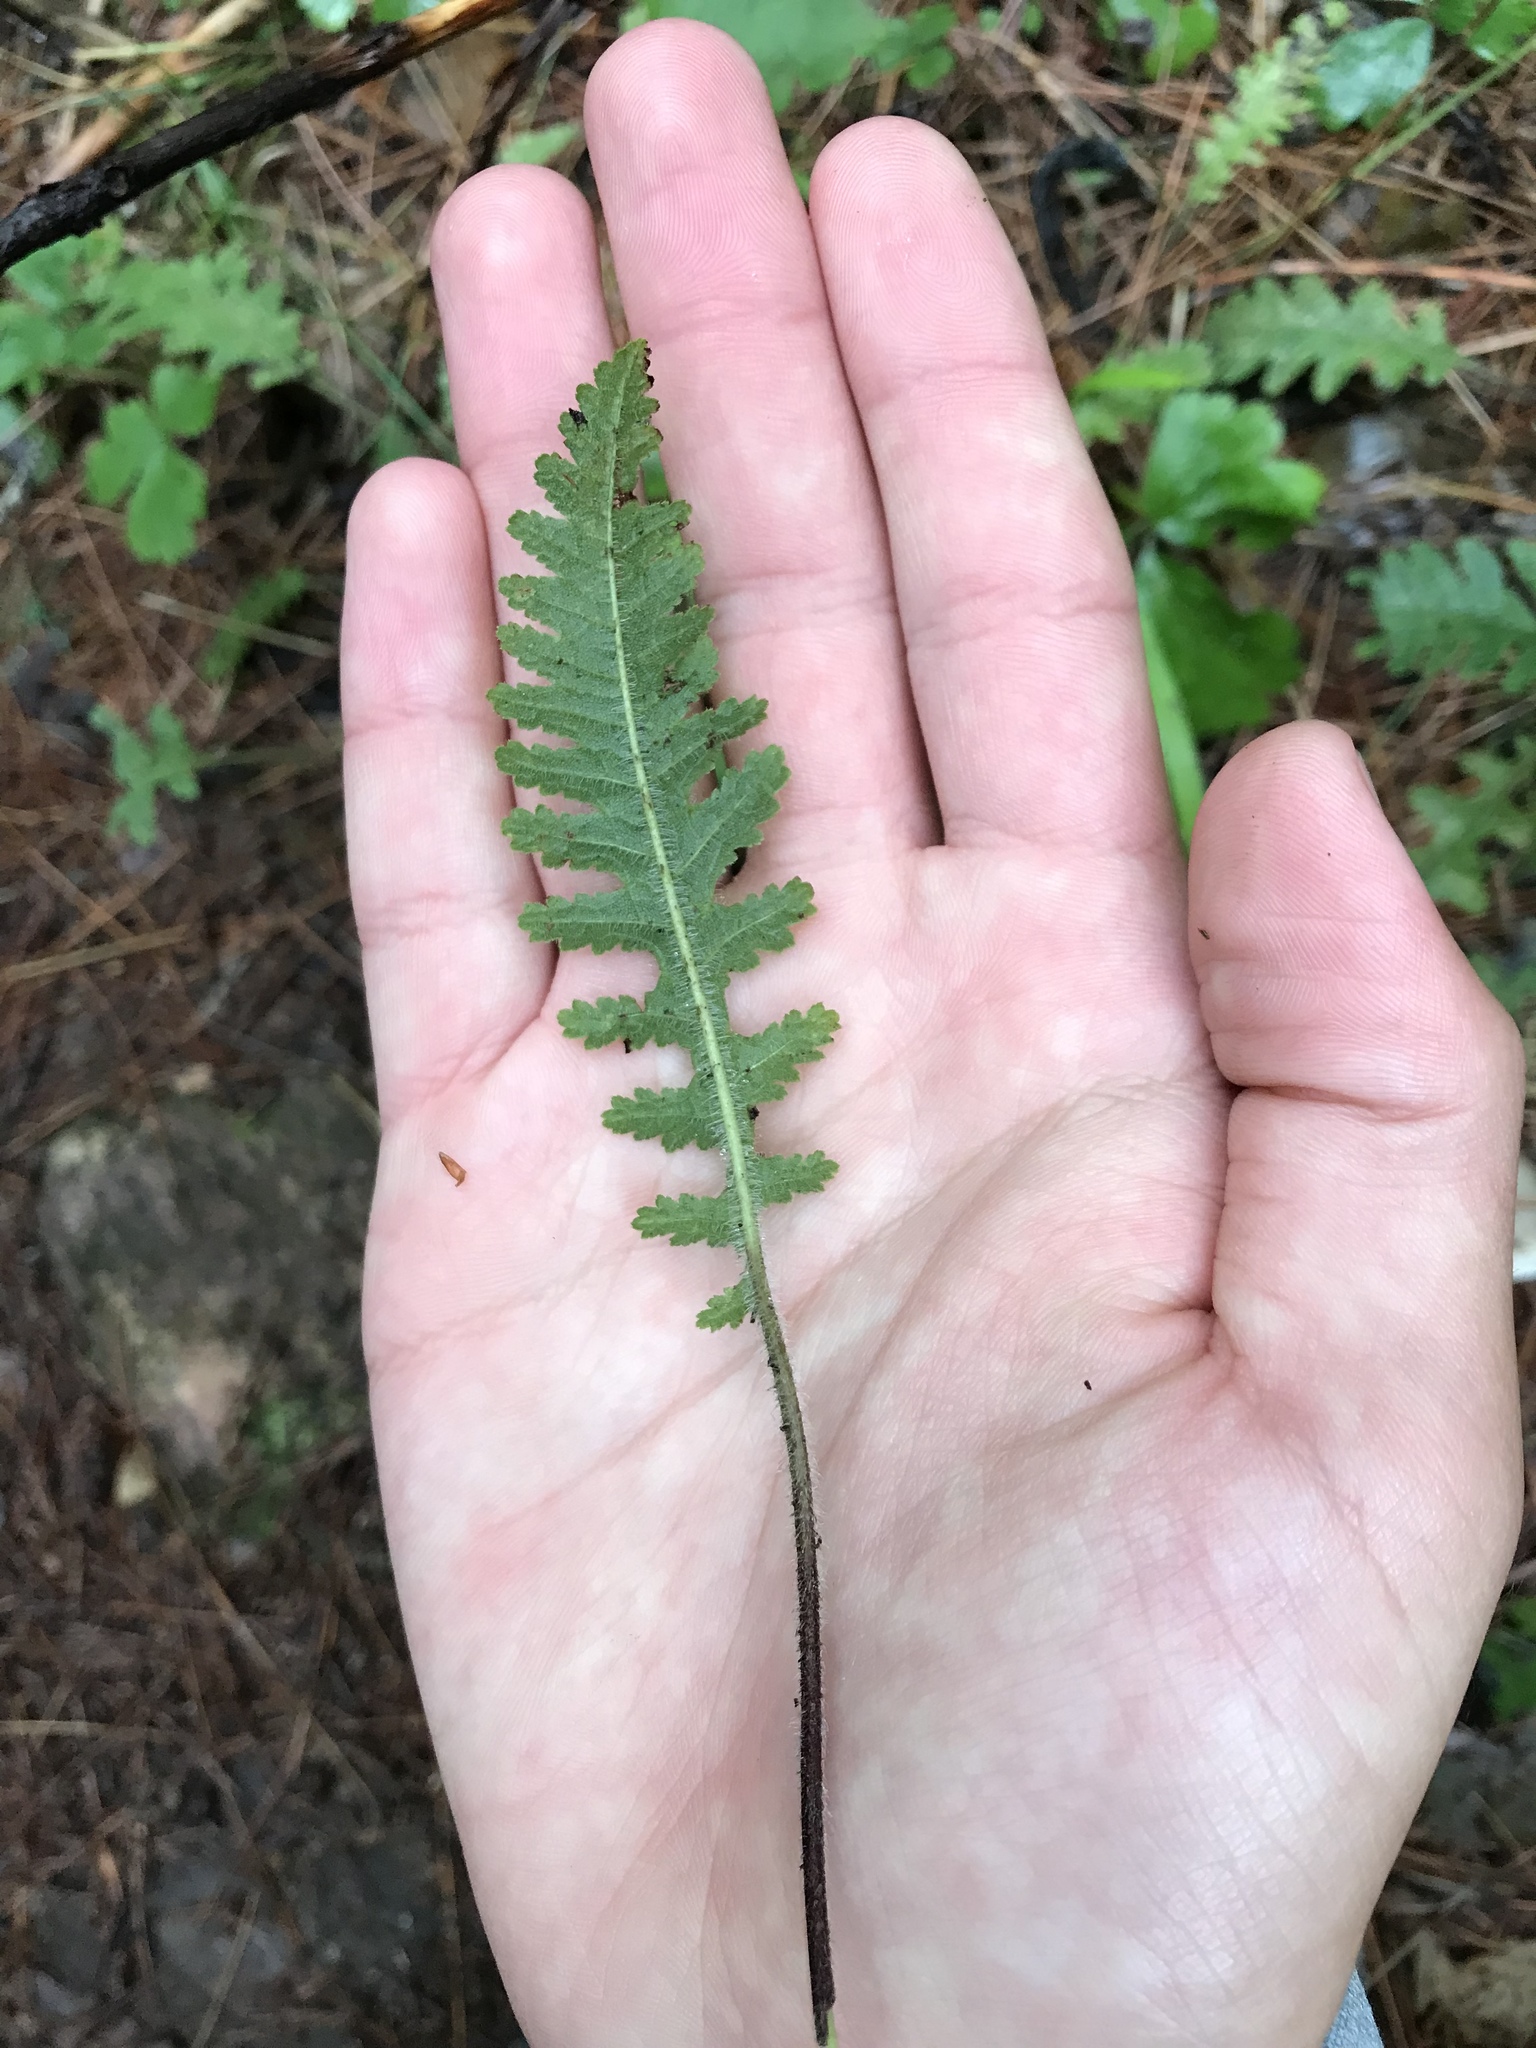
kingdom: Plantae
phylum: Tracheophyta
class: Magnoliopsida
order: Lamiales
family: Orobanchaceae
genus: Pedicularis
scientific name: Pedicularis canadensis
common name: Early lousewort
